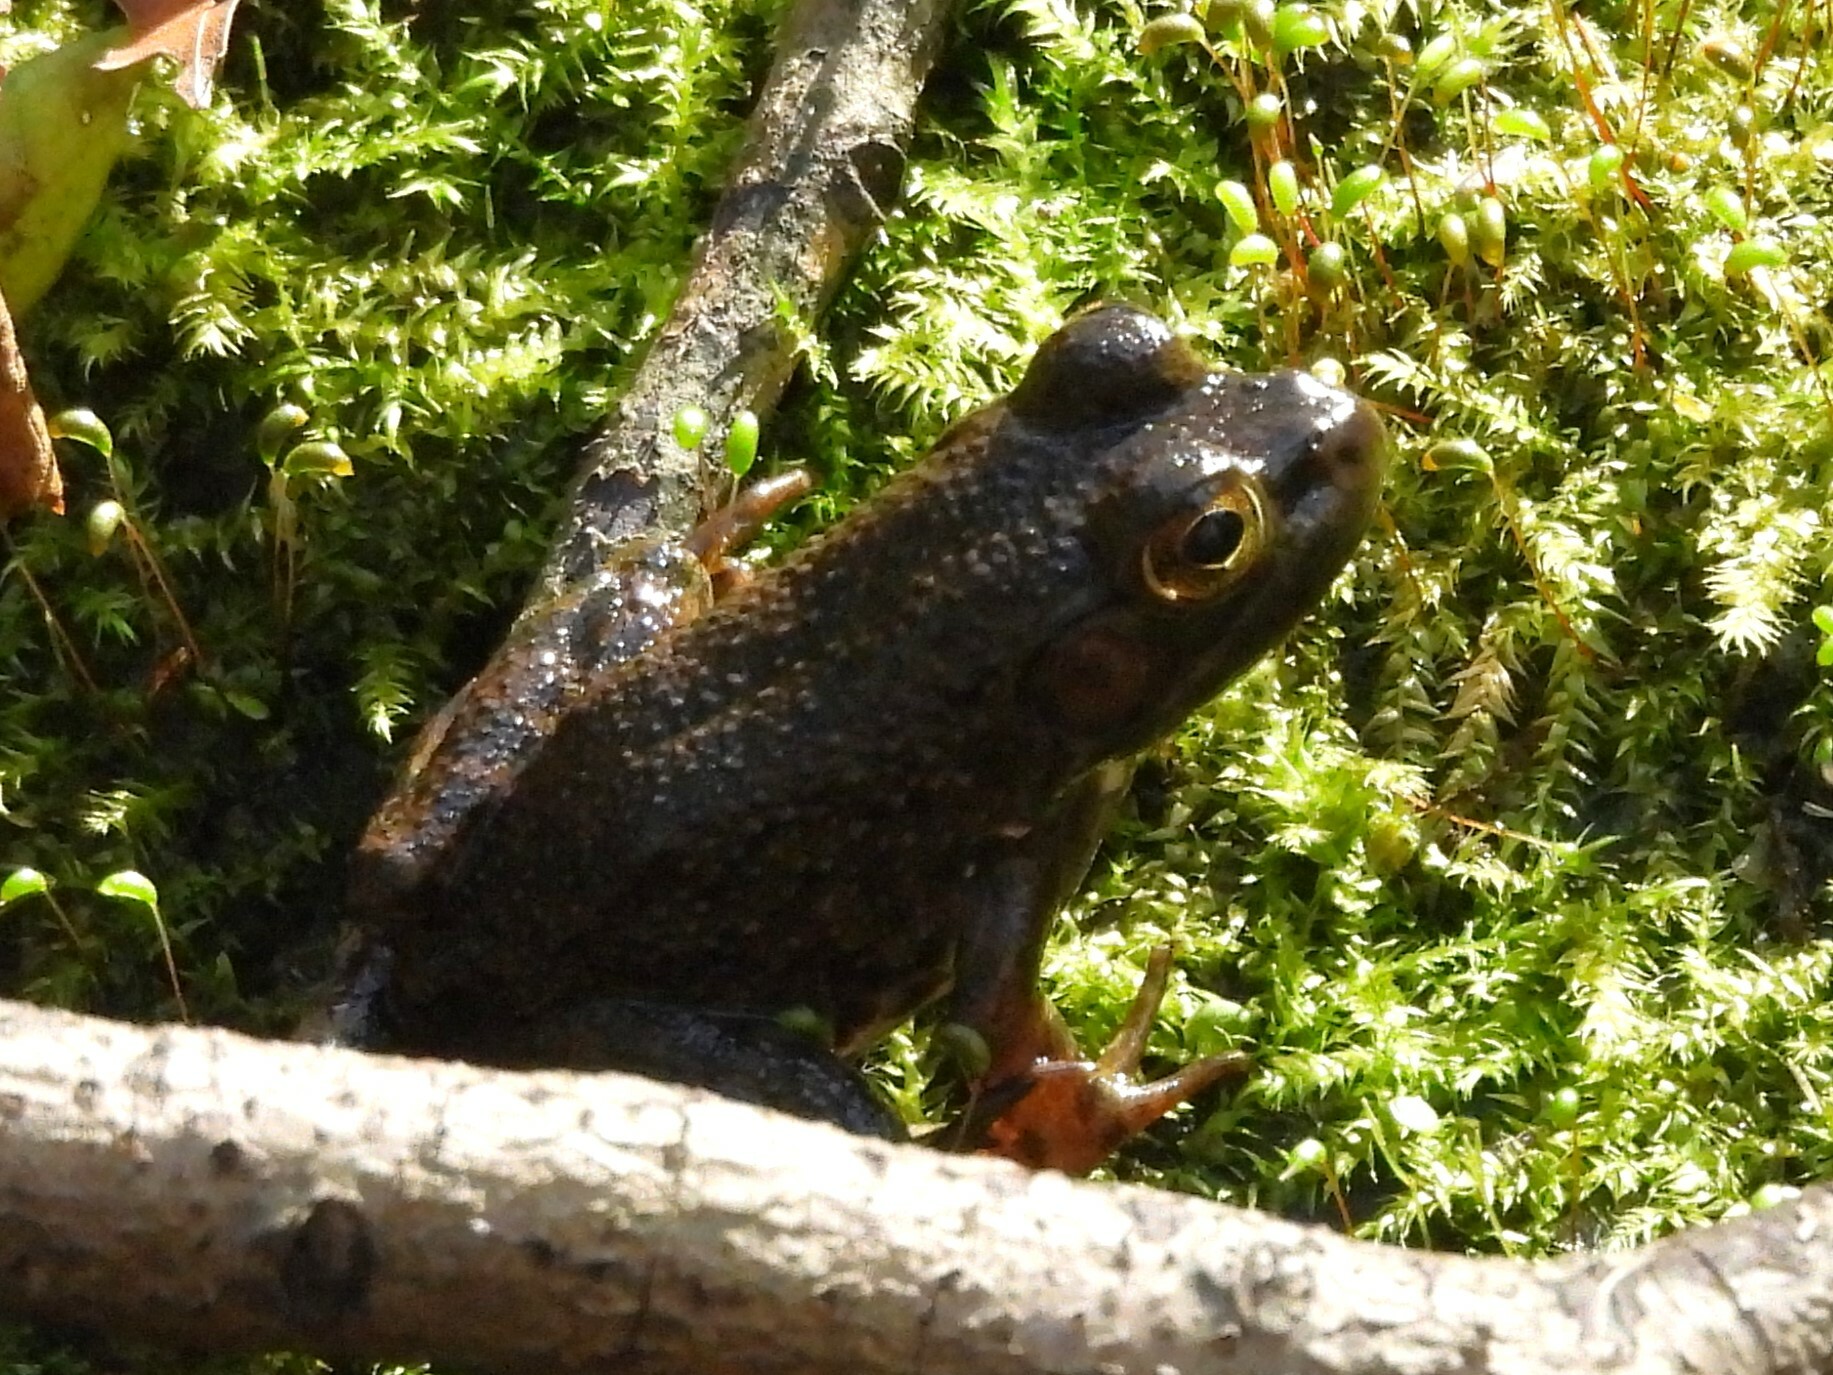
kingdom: Animalia
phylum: Chordata
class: Amphibia
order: Anura
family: Ranidae
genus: Lithobates
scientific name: Lithobates catesbeianus
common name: American bullfrog
